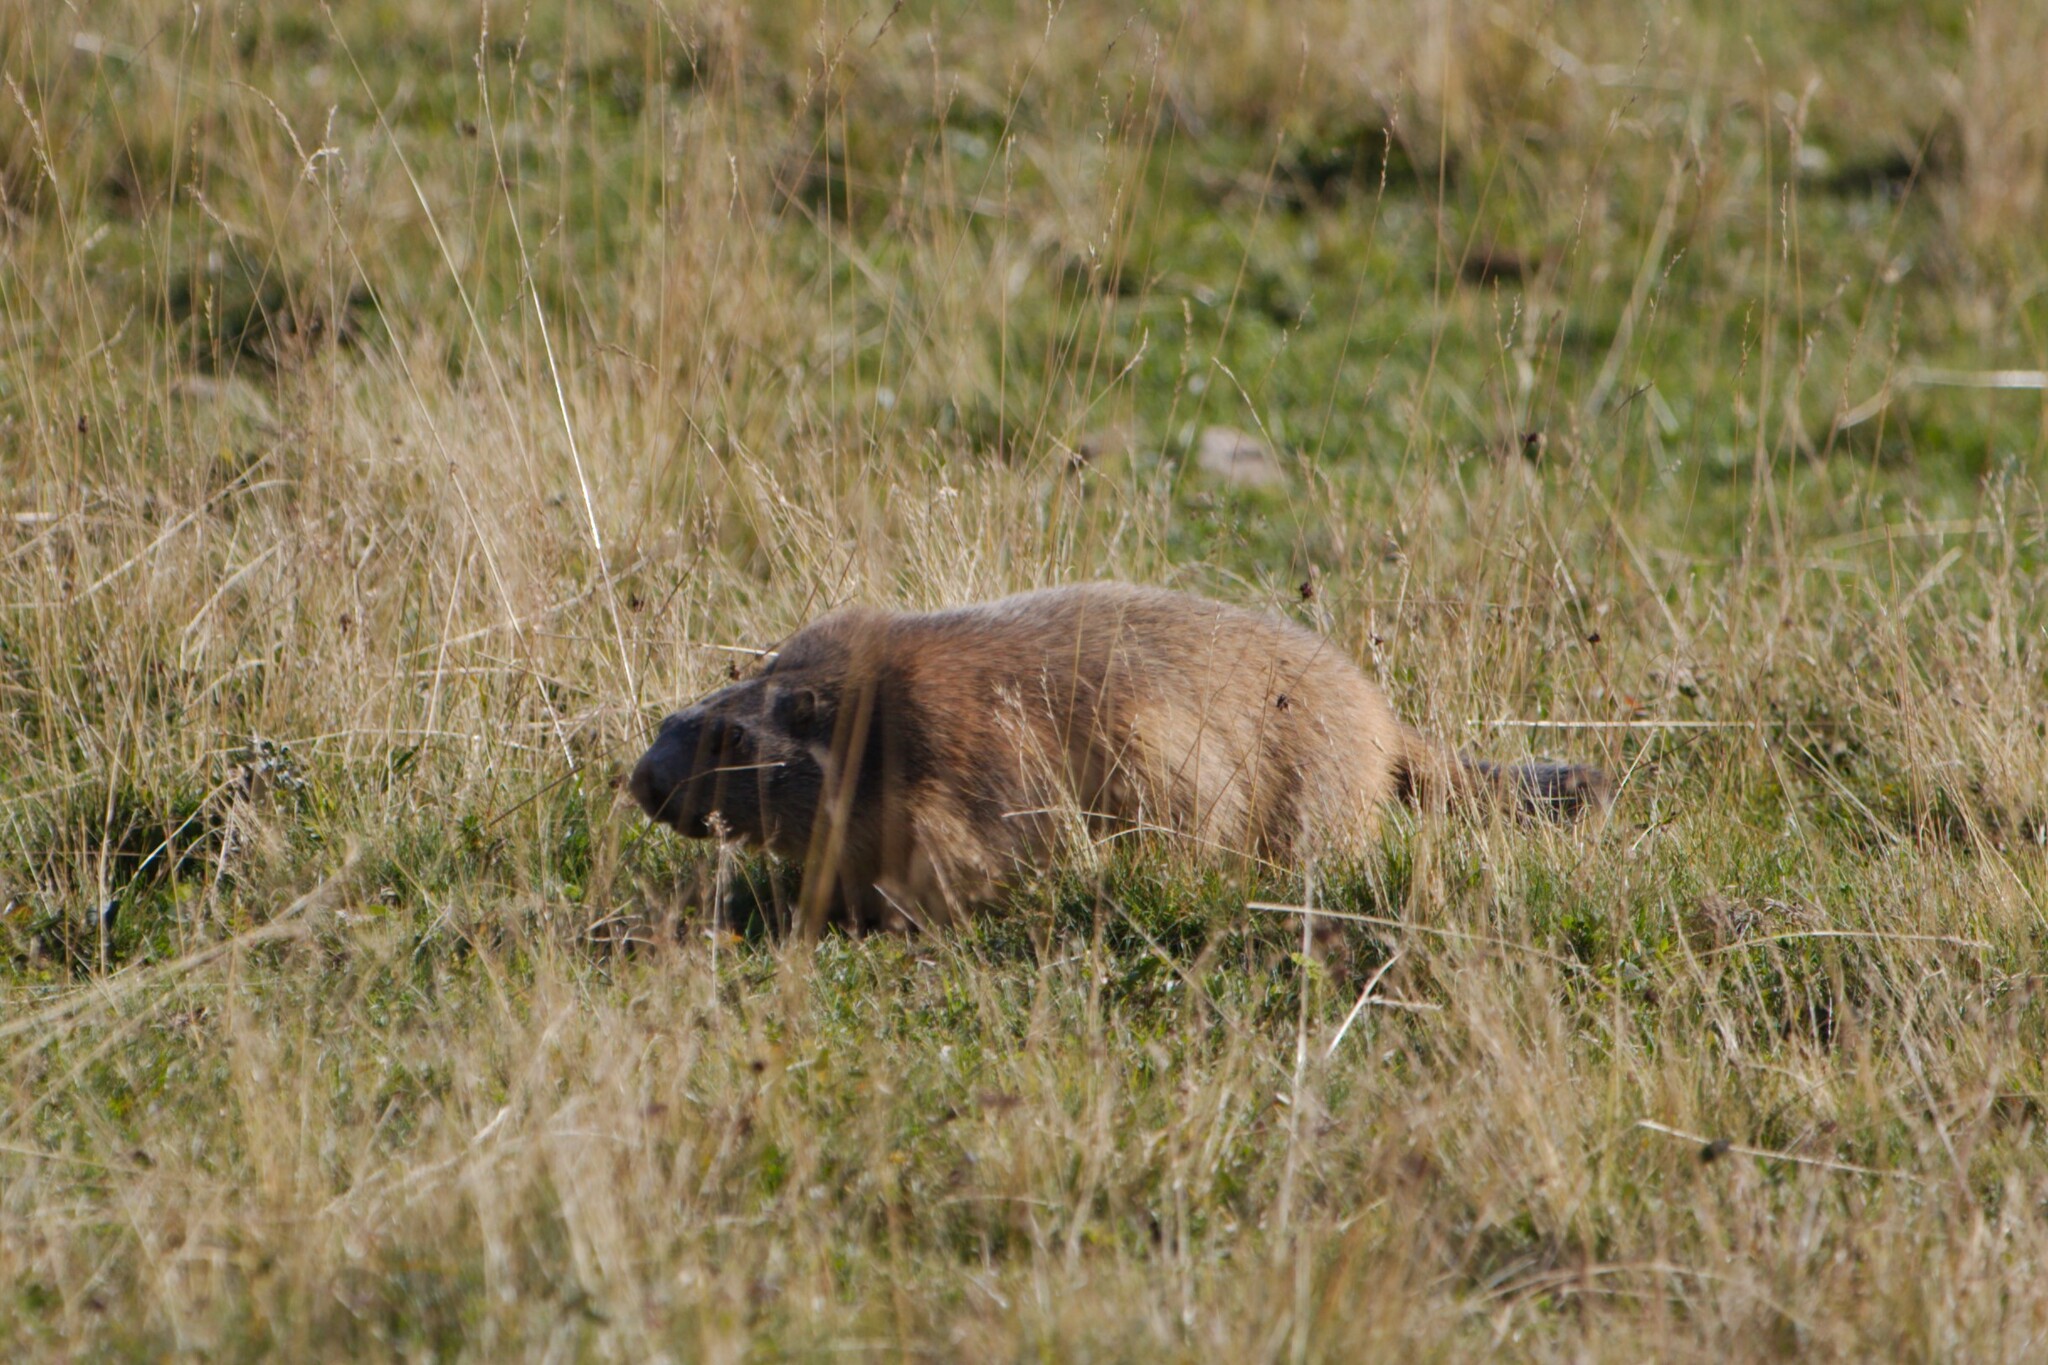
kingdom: Animalia
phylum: Chordata
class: Mammalia
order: Rodentia
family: Sciuridae
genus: Marmota
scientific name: Marmota marmota
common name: Alpine marmot
